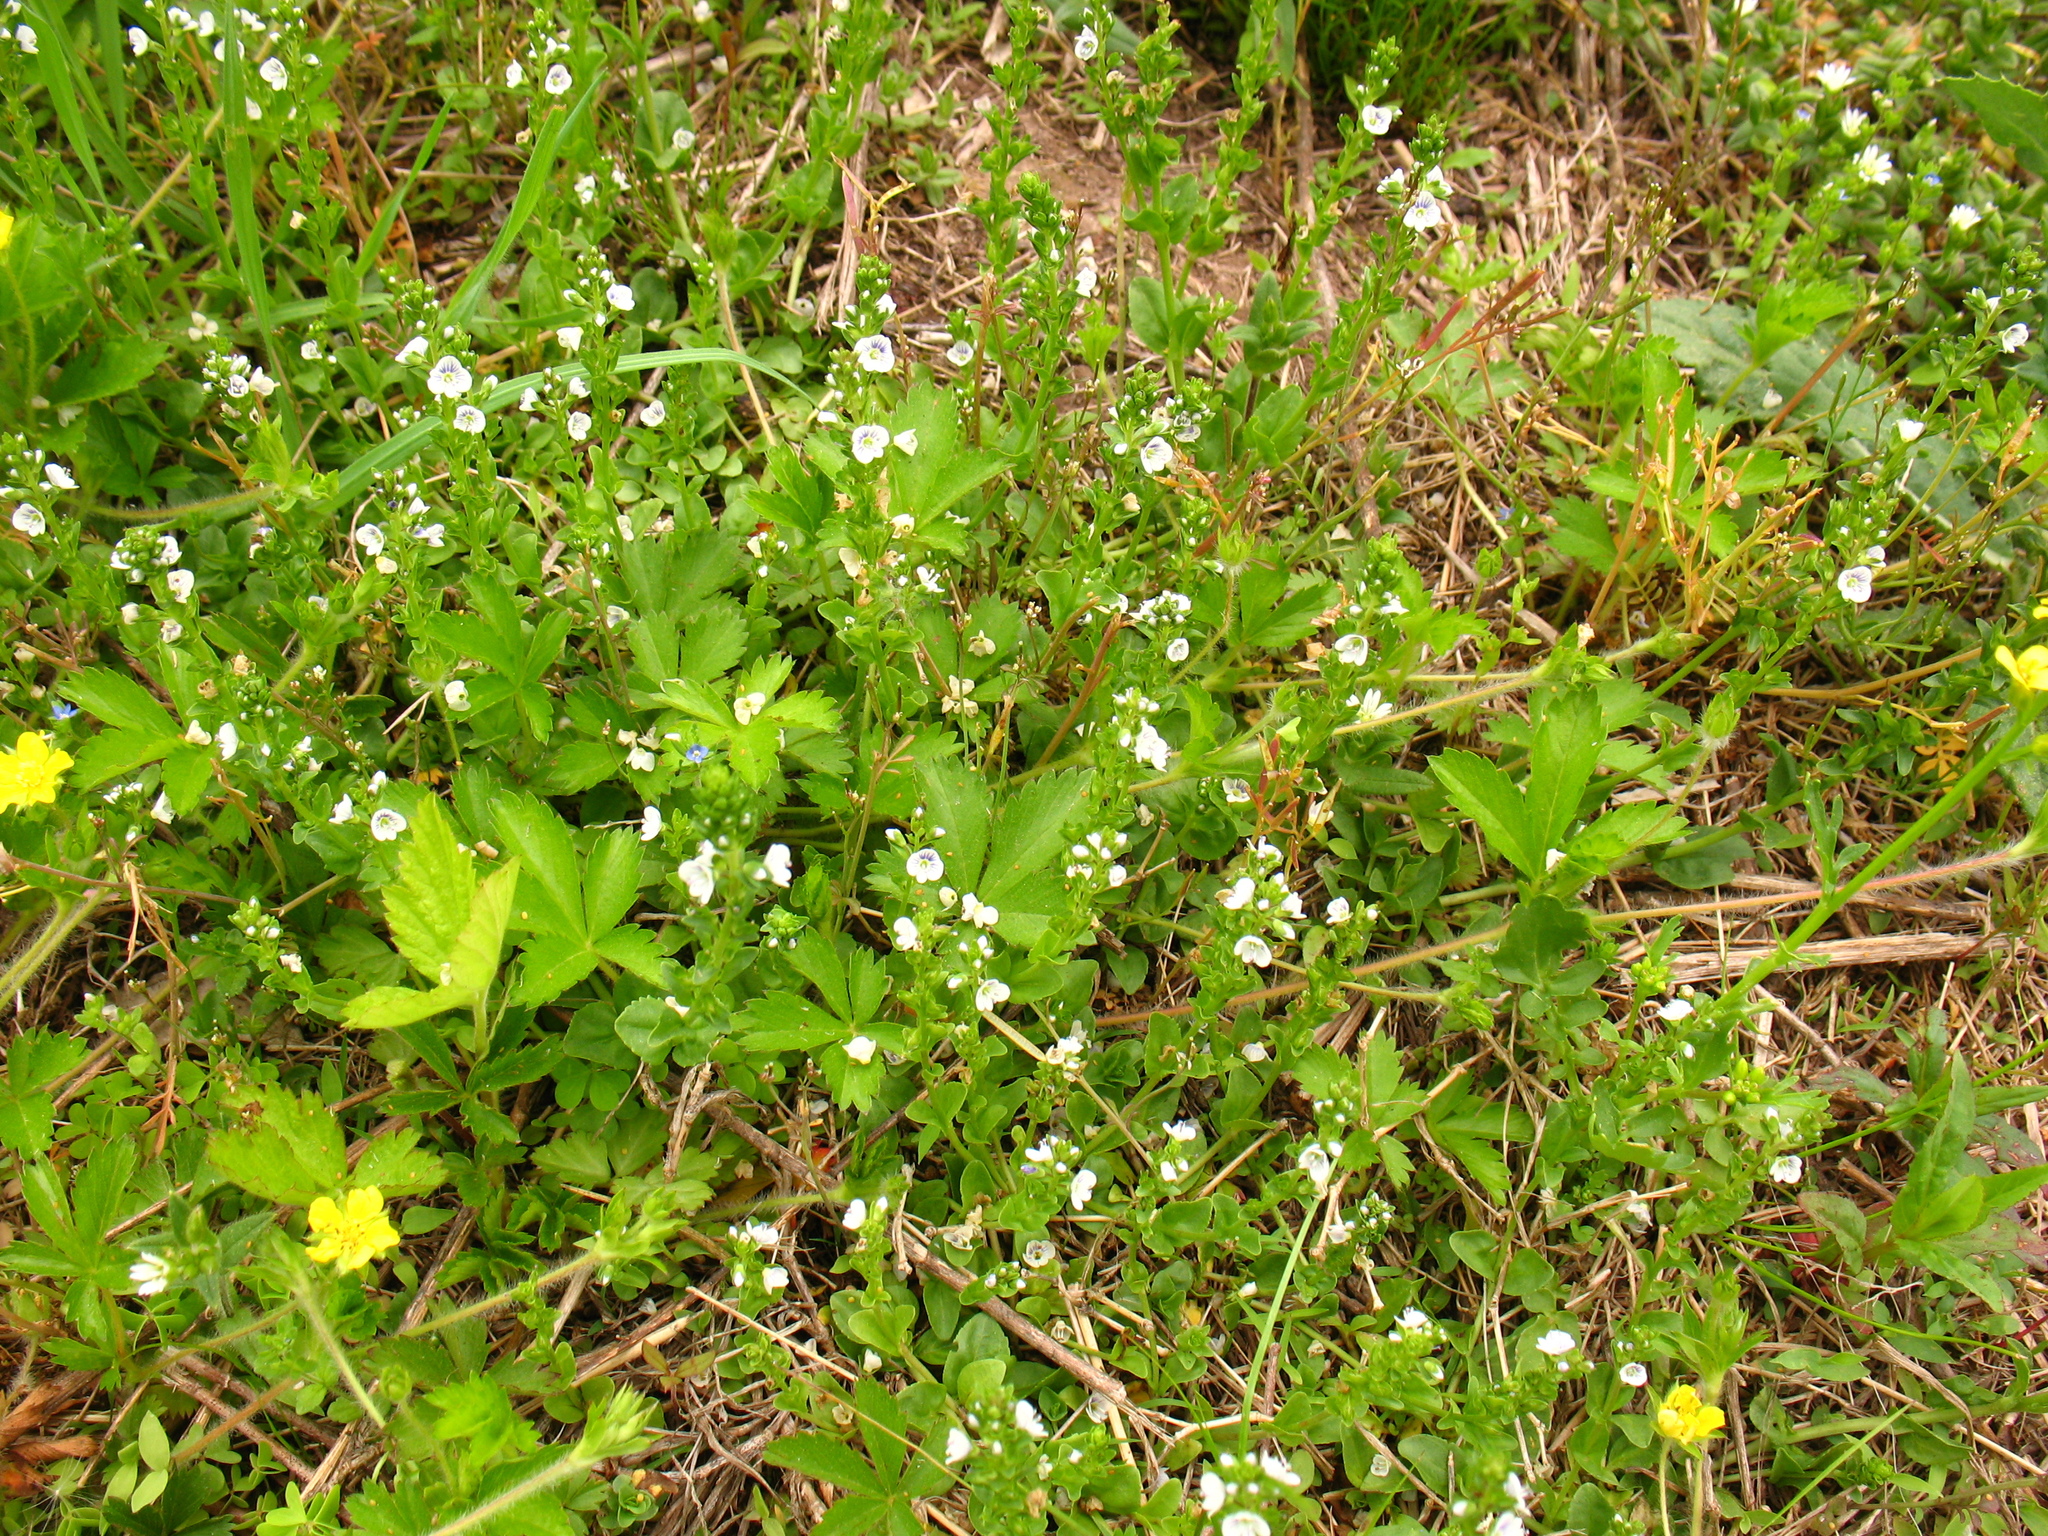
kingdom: Plantae
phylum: Tracheophyta
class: Magnoliopsida
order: Lamiales
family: Plantaginaceae
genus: Veronica
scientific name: Veronica serpyllifolia
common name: Thyme-leaved speedwell
